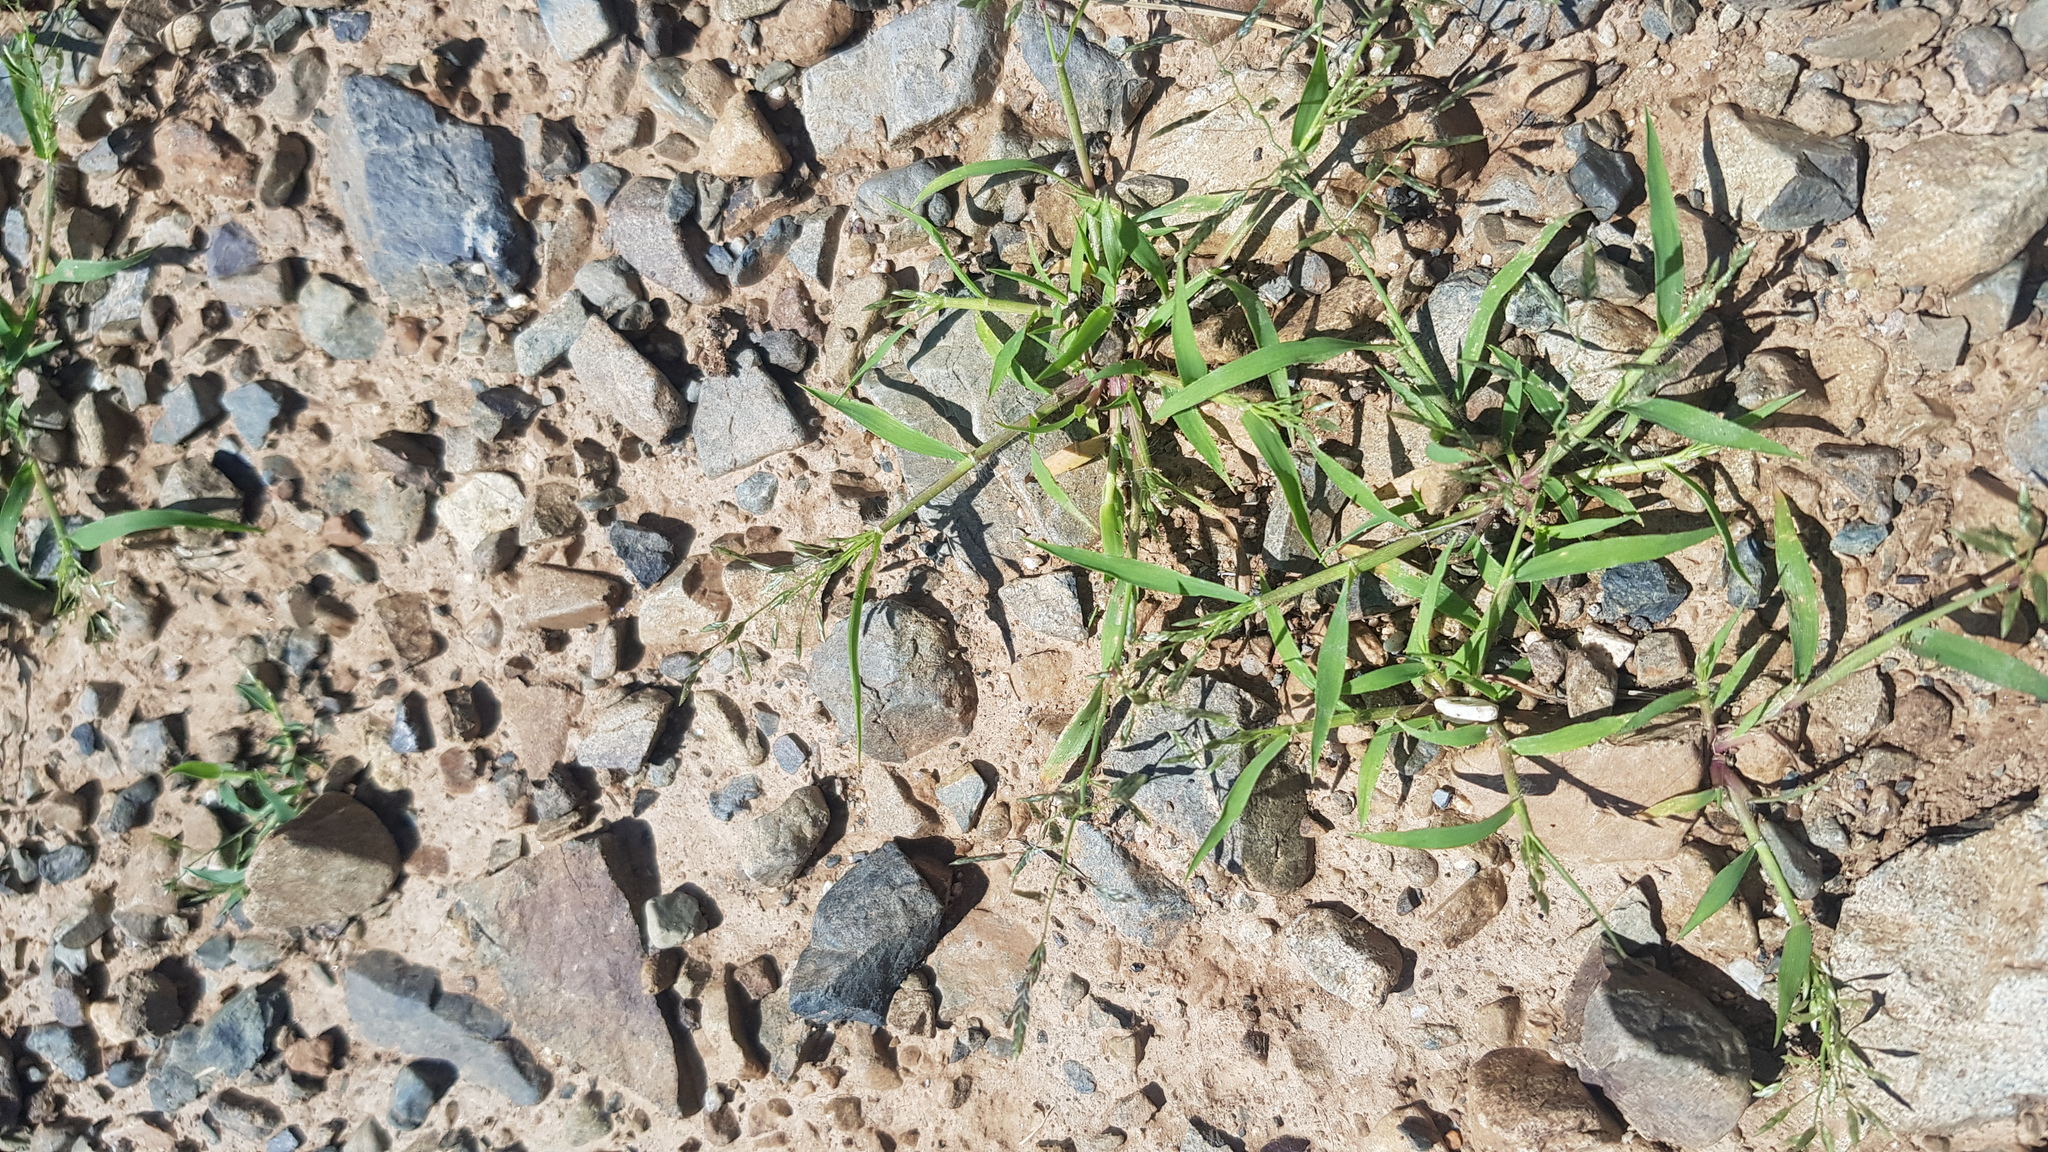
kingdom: Plantae
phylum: Tracheophyta
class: Liliopsida
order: Poales
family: Poaceae
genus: Eragrostis
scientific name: Eragrostis minor
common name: Small love-grass
